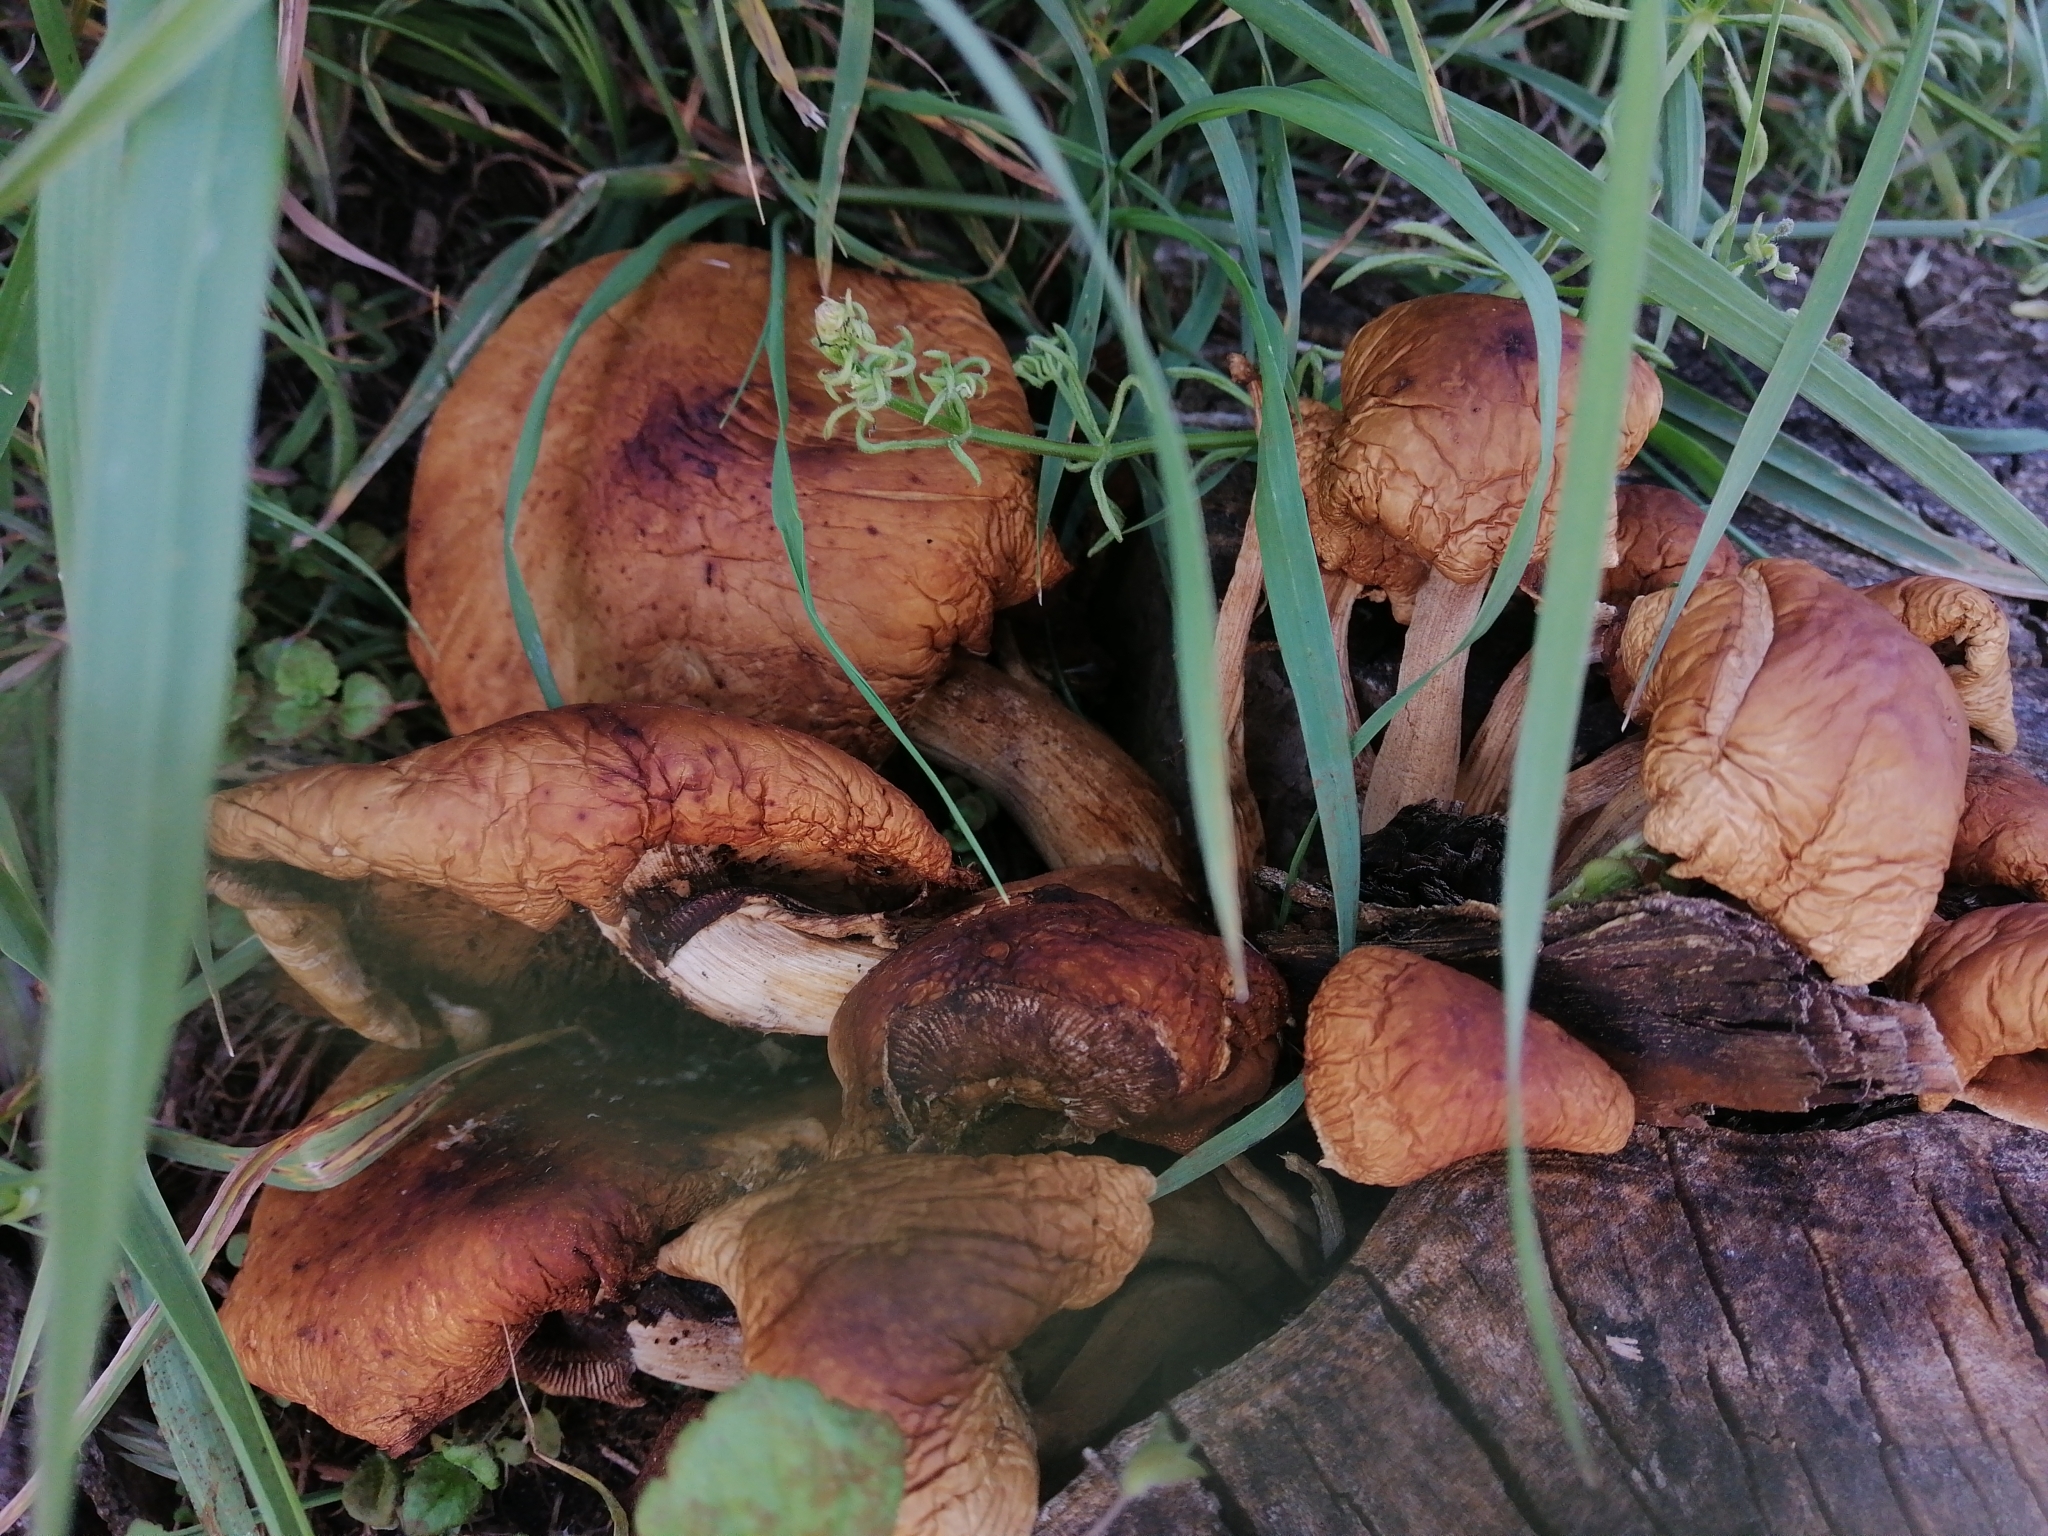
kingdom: Fungi
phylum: Basidiomycota
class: Agaricomycetes
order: Agaricales
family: Tubariaceae
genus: Cyclocybe
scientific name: Cyclocybe parasitica
